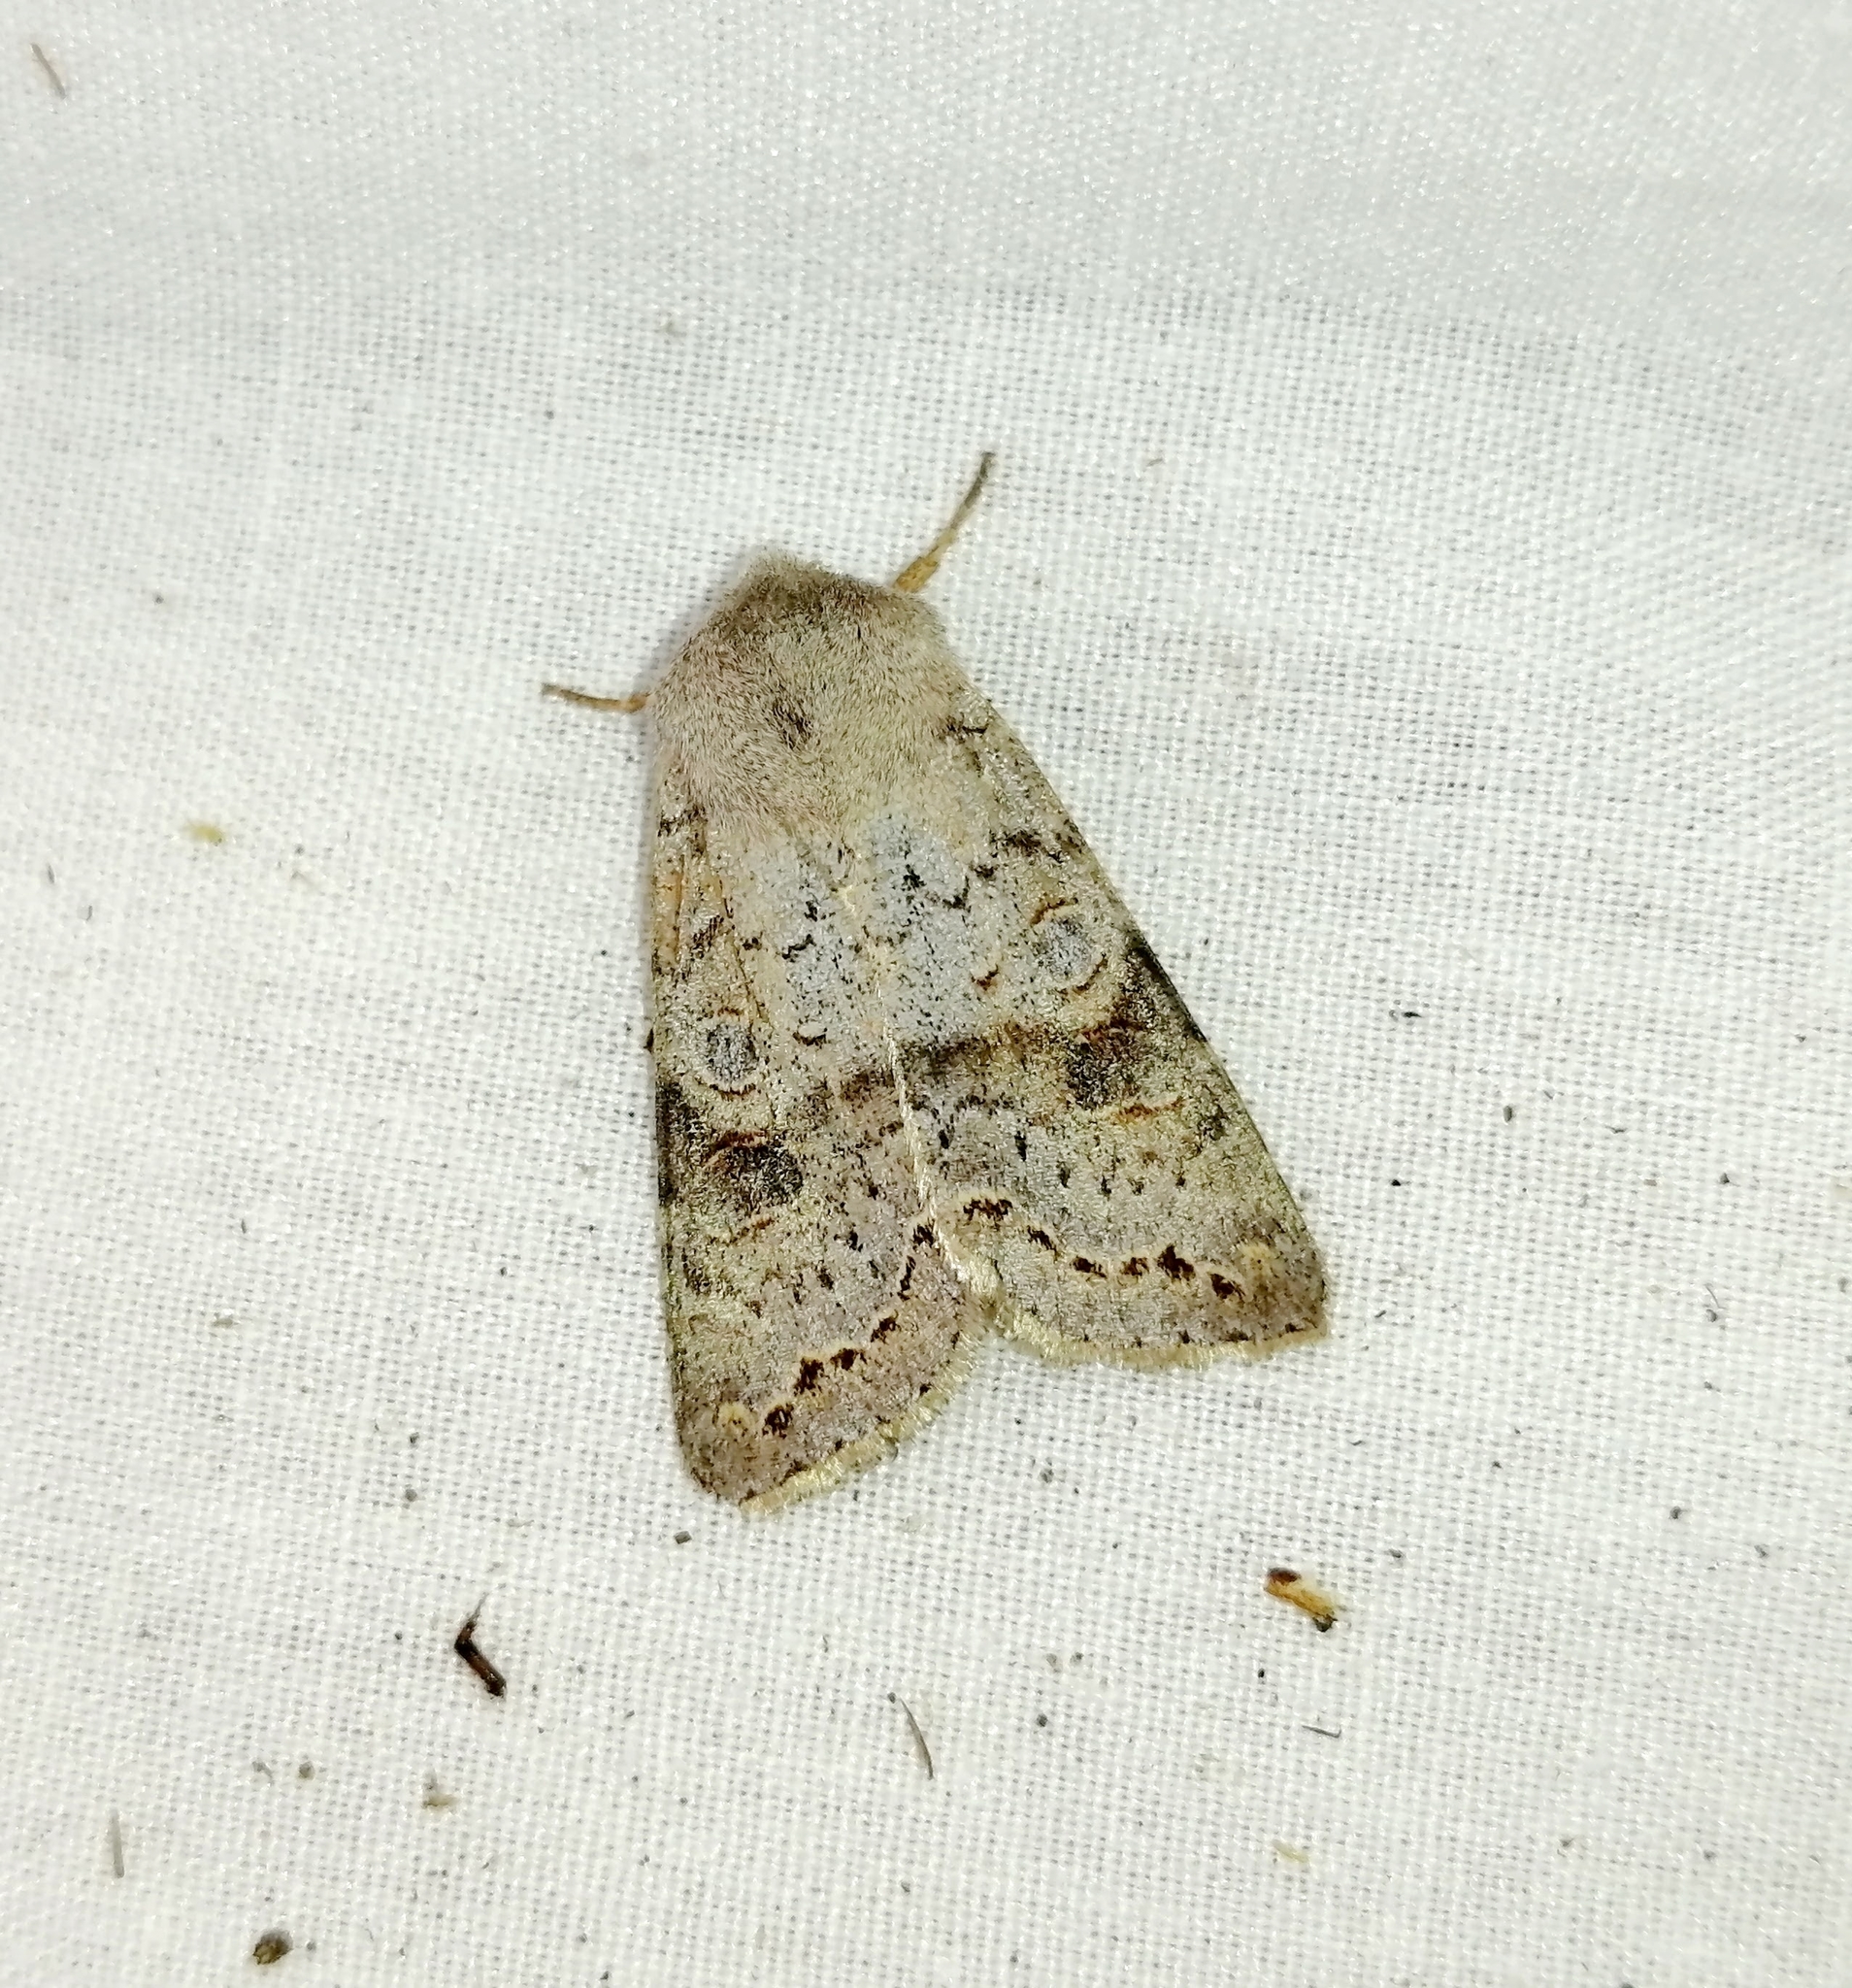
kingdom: Animalia
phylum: Arthropoda
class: Insecta
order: Lepidoptera
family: Noctuidae
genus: Orthosia
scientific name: Orthosia revicta
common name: Rusty whitesided caterpillar
